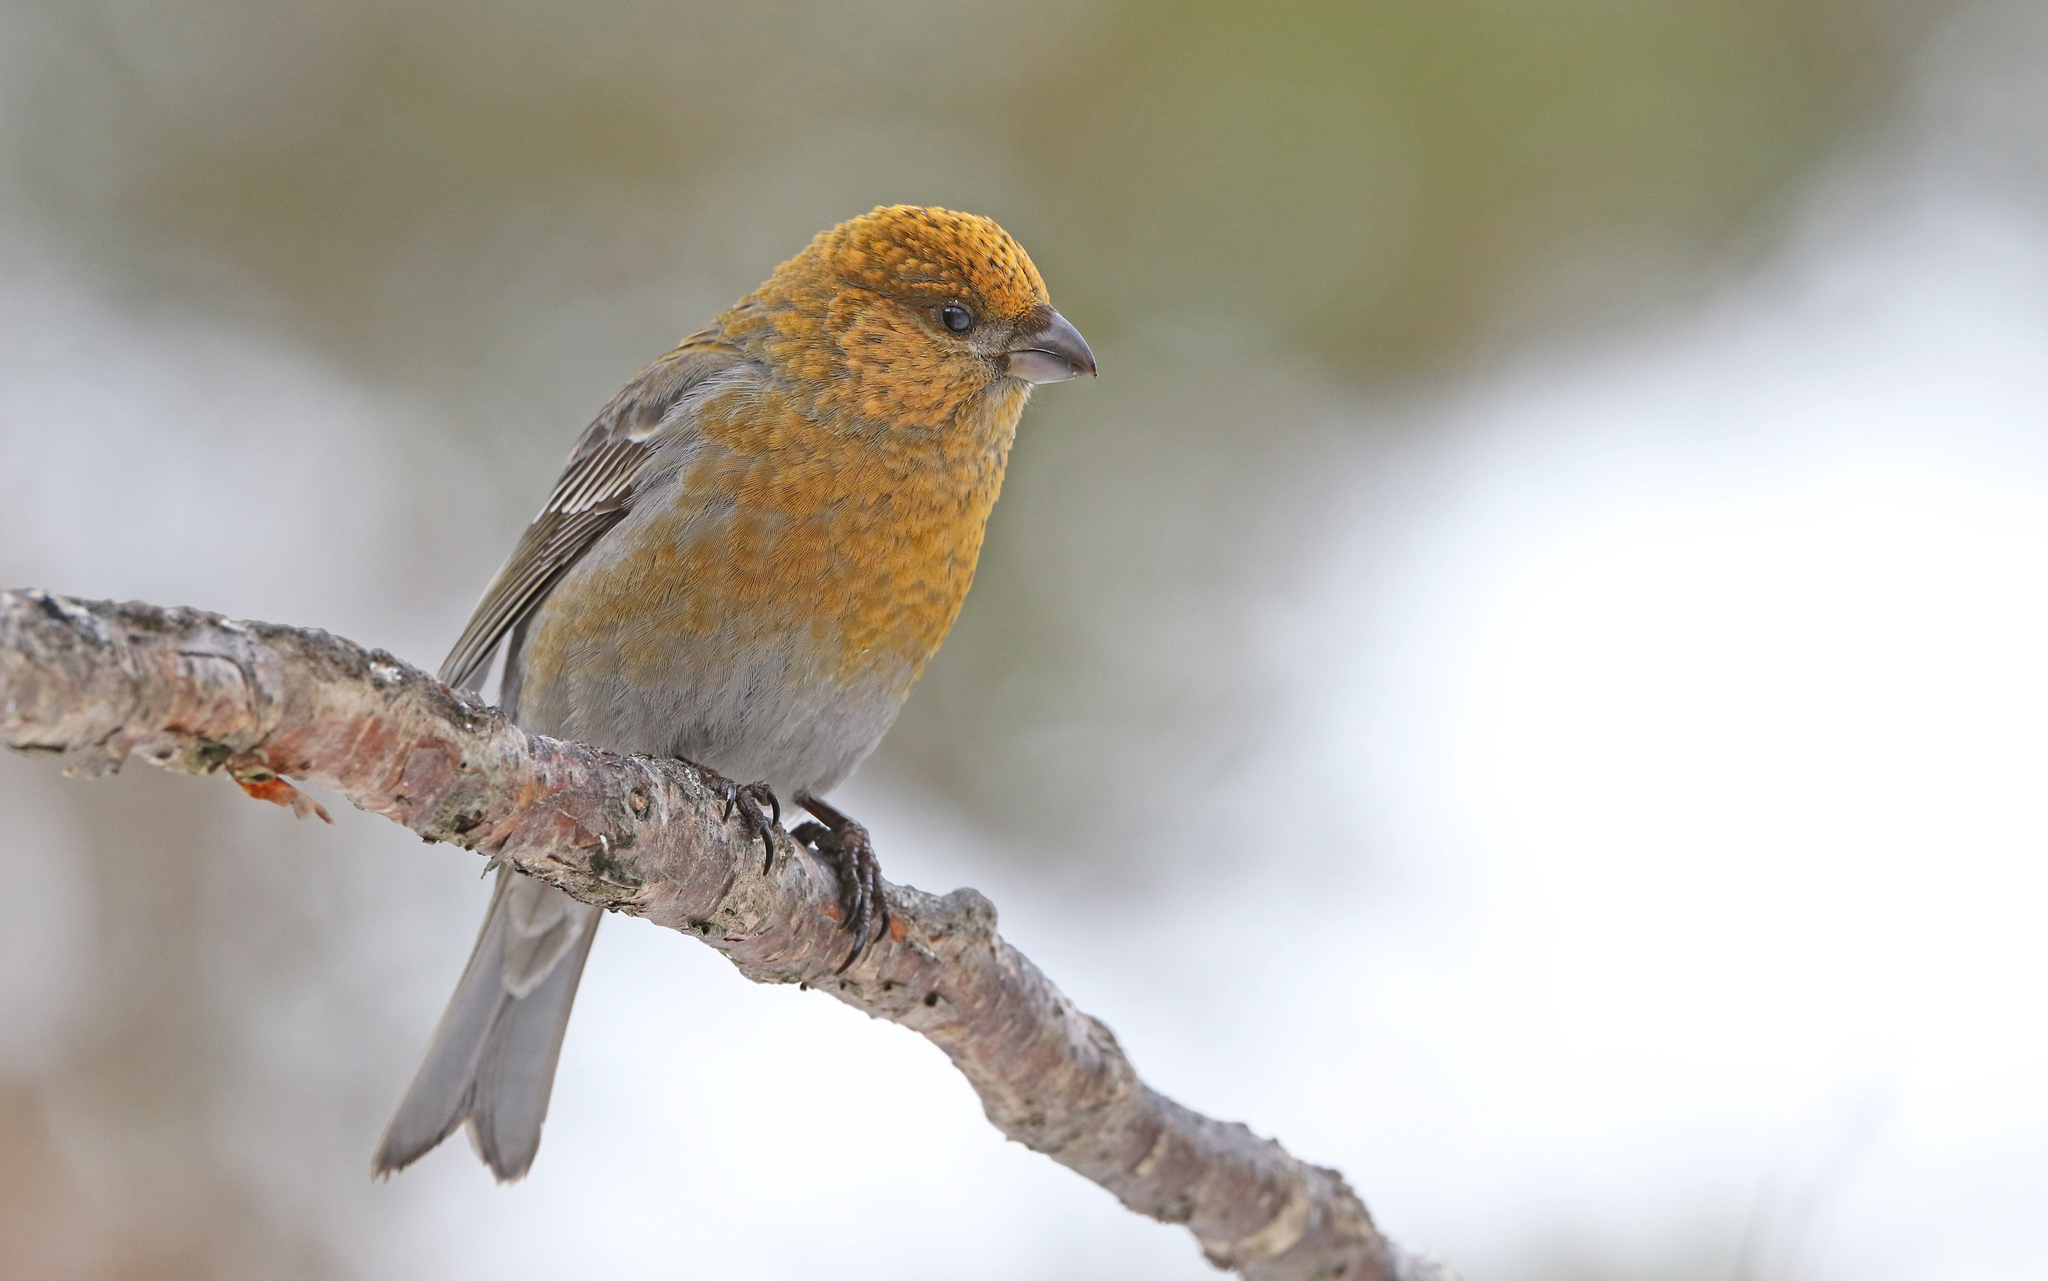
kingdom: Animalia
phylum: Chordata
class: Aves
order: Passeriformes
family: Fringillidae
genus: Pinicola
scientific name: Pinicola enucleator
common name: Pine grosbeak
